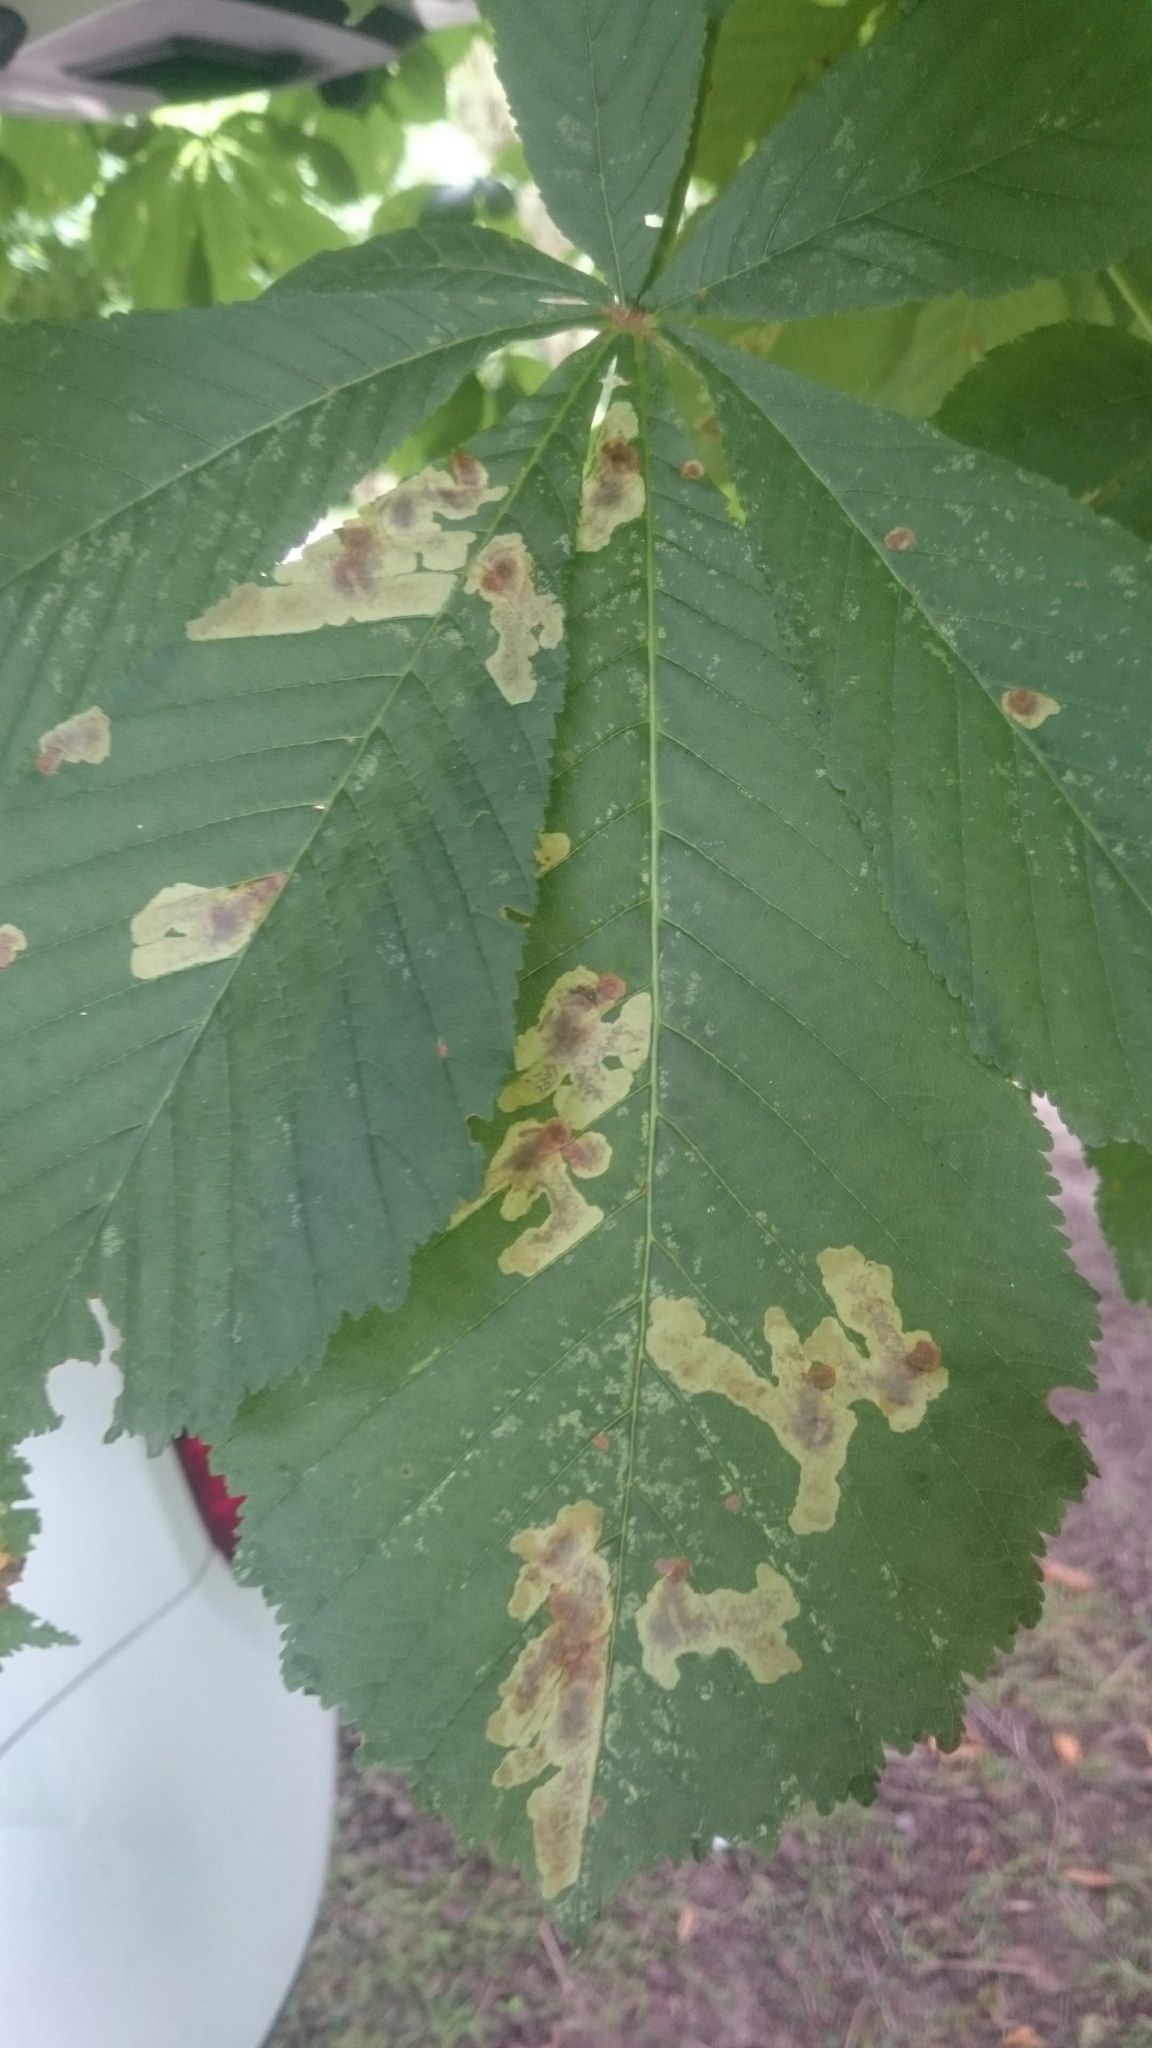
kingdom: Animalia
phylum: Arthropoda
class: Insecta
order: Lepidoptera
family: Gracillariidae
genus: Cameraria
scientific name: Cameraria ohridella
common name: Horse-chestnut leaf-miner
